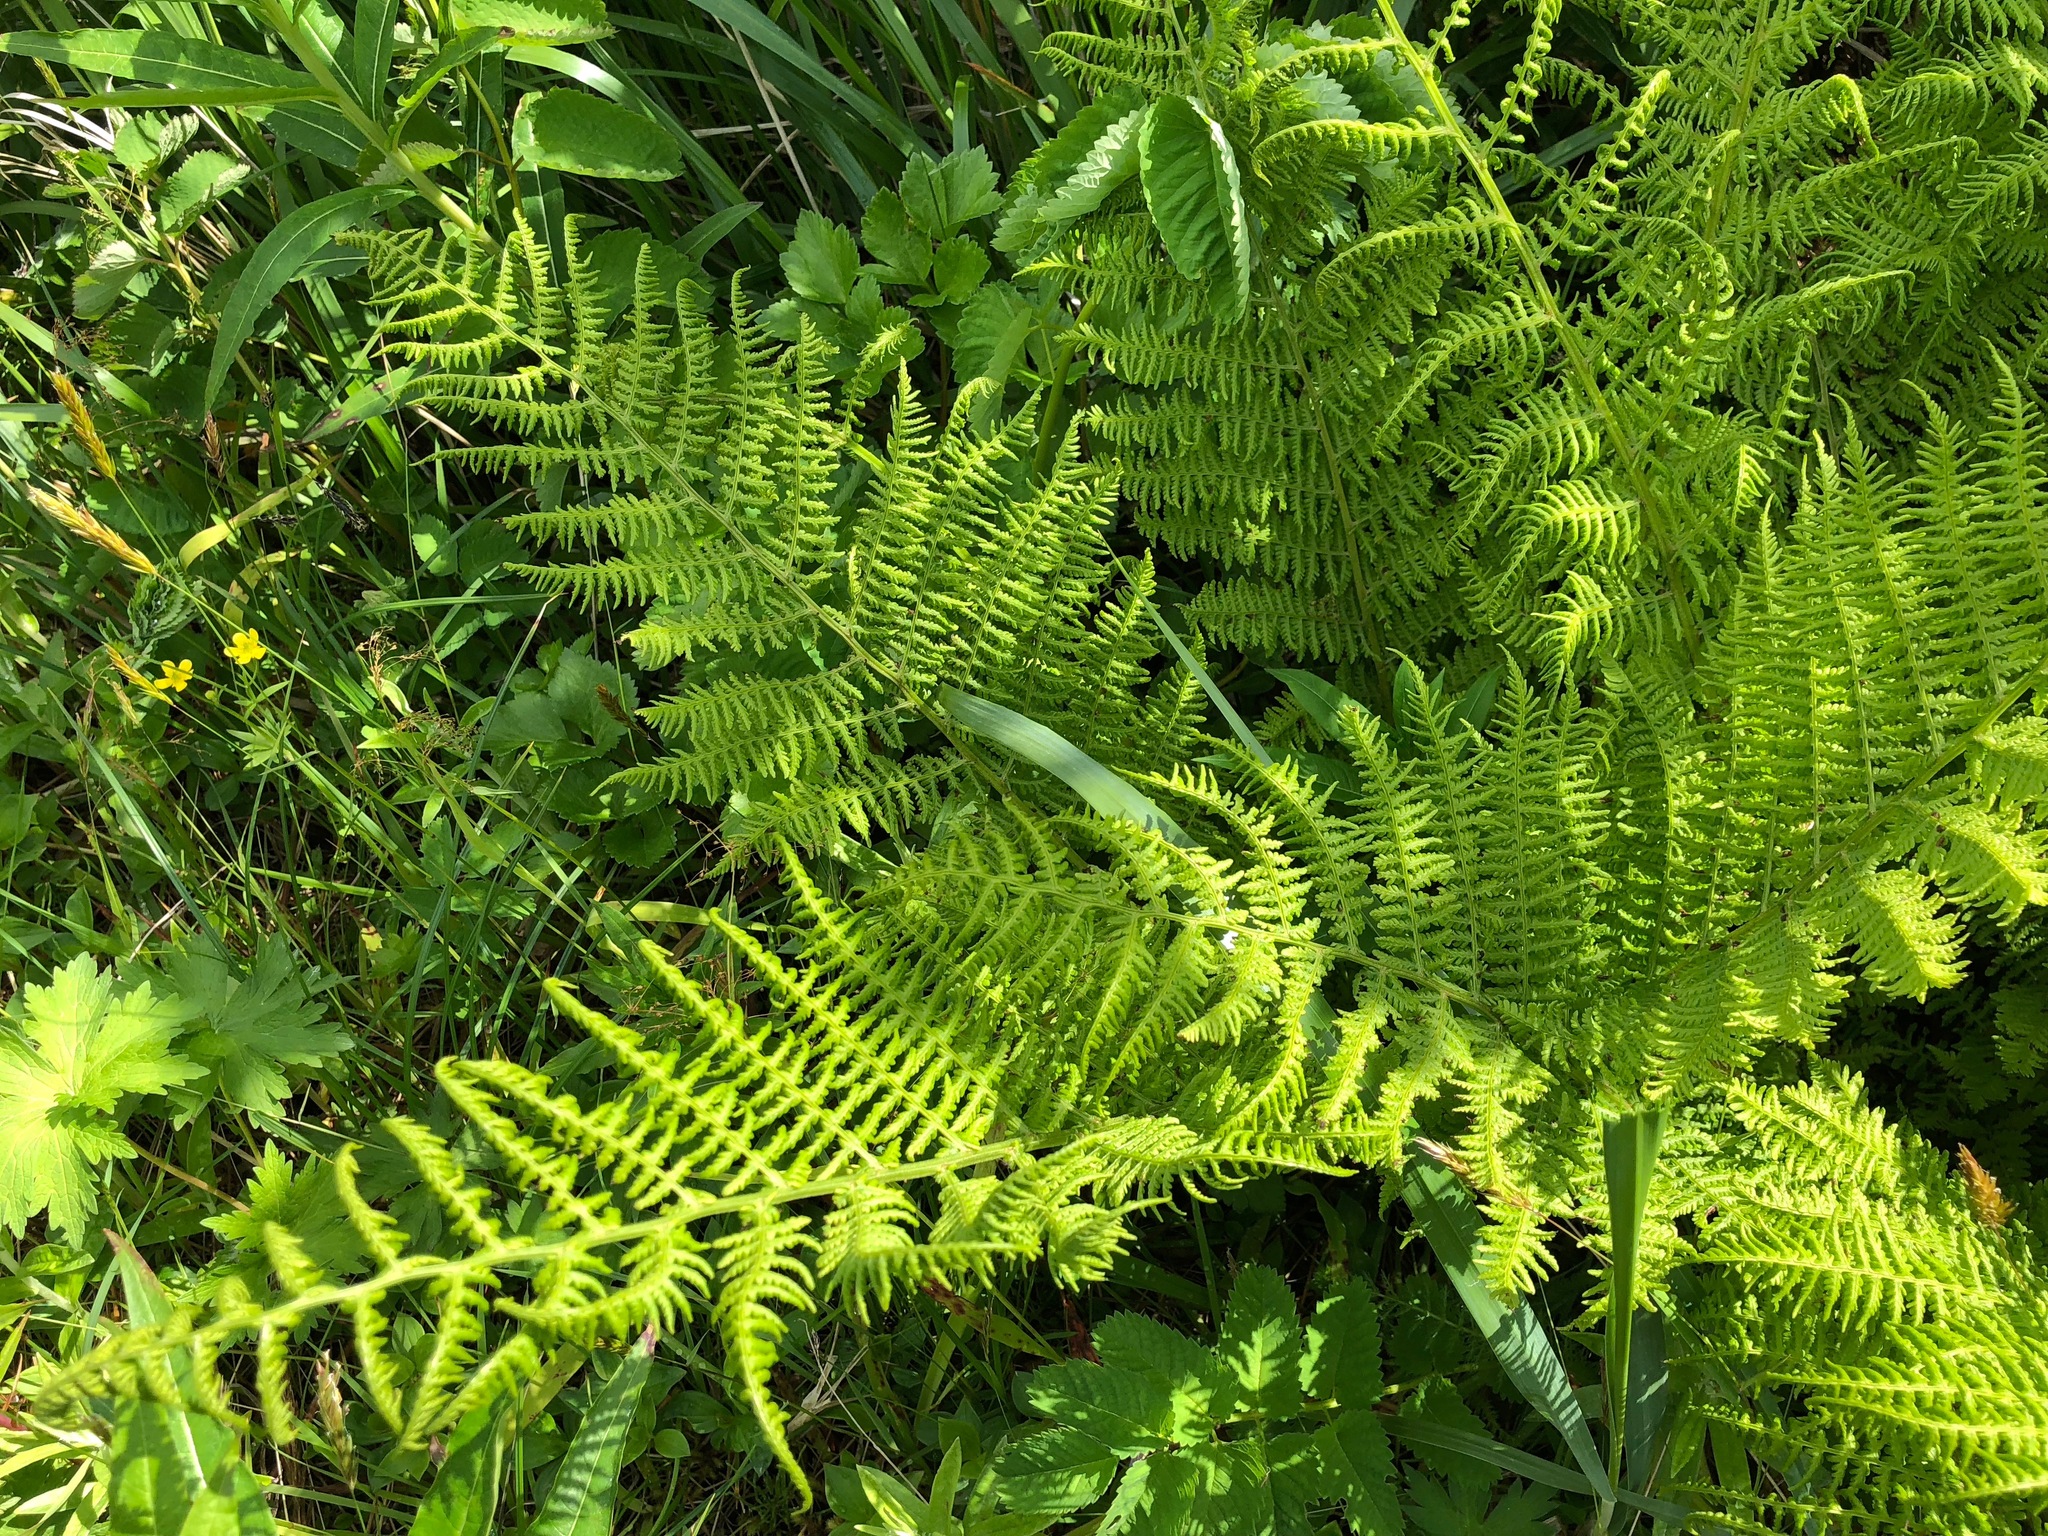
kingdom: Plantae
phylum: Tracheophyta
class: Polypodiopsida
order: Polypodiales
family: Athyriaceae
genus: Athyrium
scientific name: Athyrium filix-femina
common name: Lady fern
